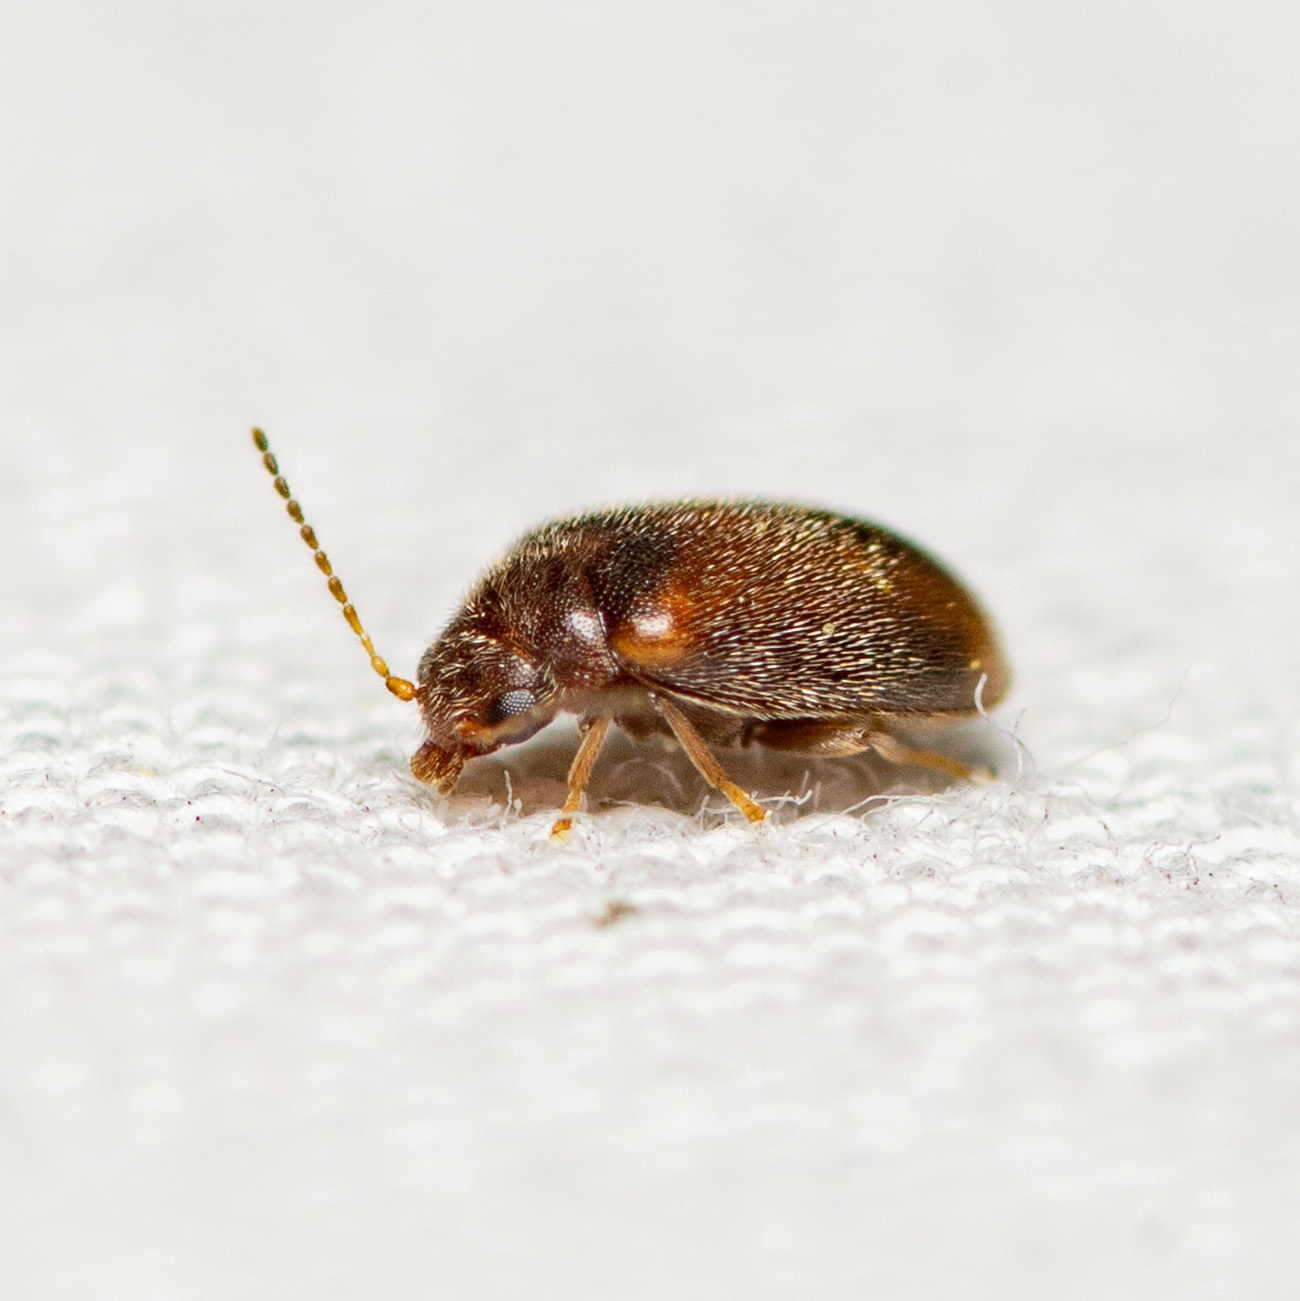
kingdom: Animalia
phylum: Arthropoda
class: Insecta
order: Coleoptera
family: Scirtidae
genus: Contacyphon
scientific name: Contacyphon
